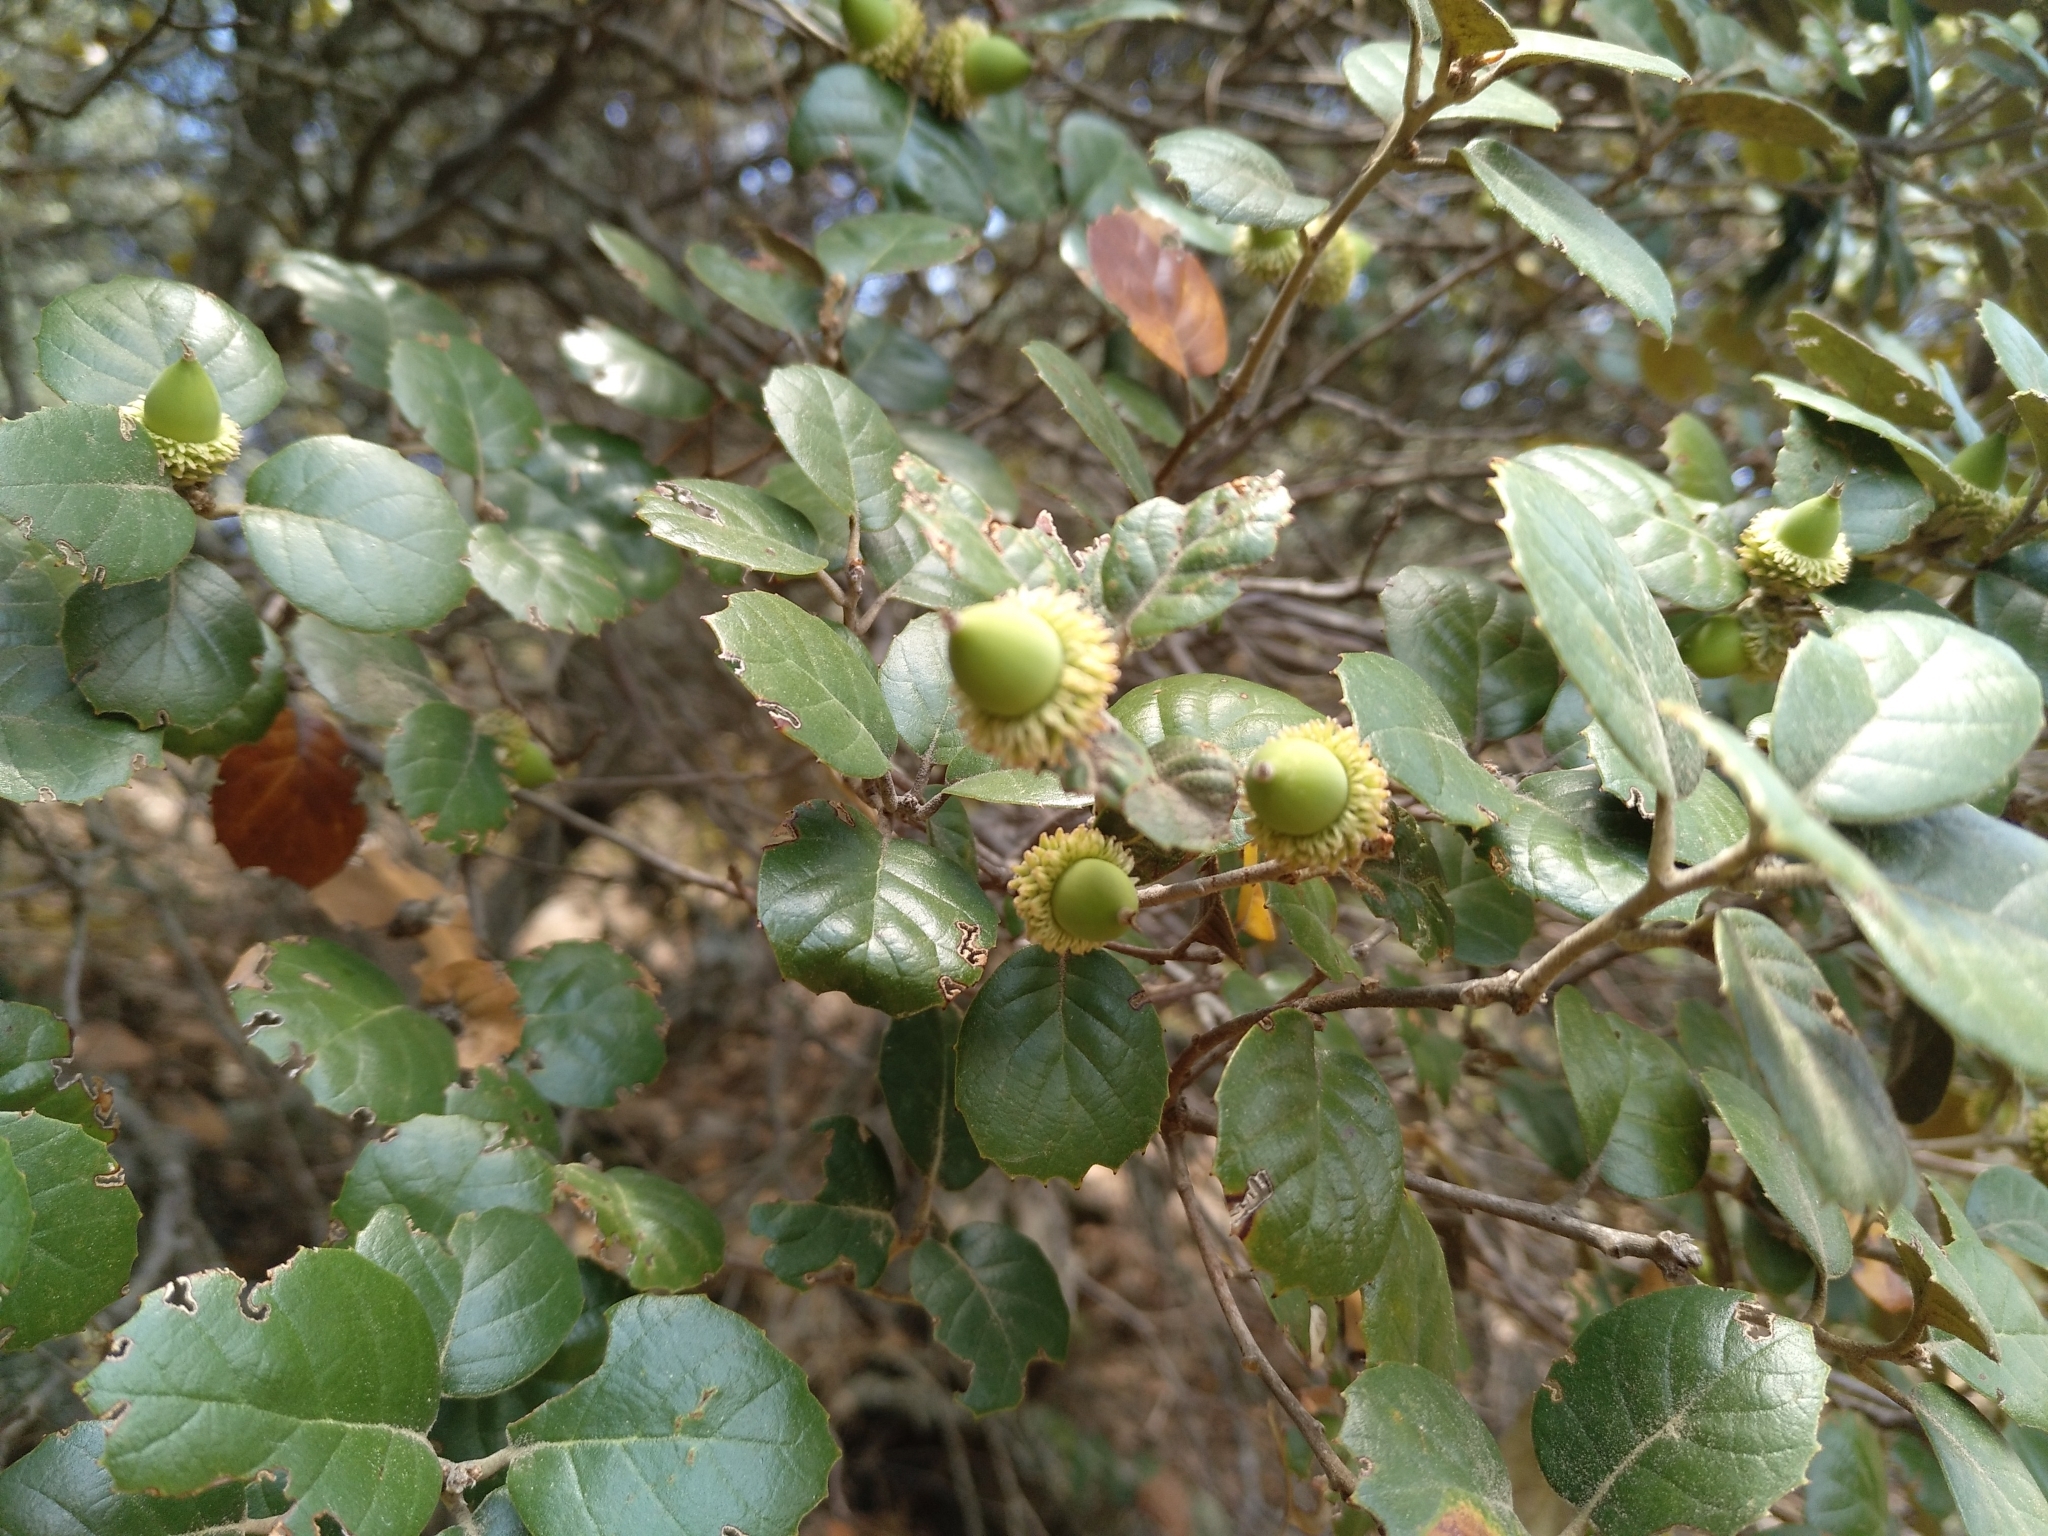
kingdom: Plantae
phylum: Tracheophyta
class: Magnoliopsida
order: Fagales
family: Fagaceae
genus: Quercus
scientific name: Quercus alnifolia
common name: Golden oak
